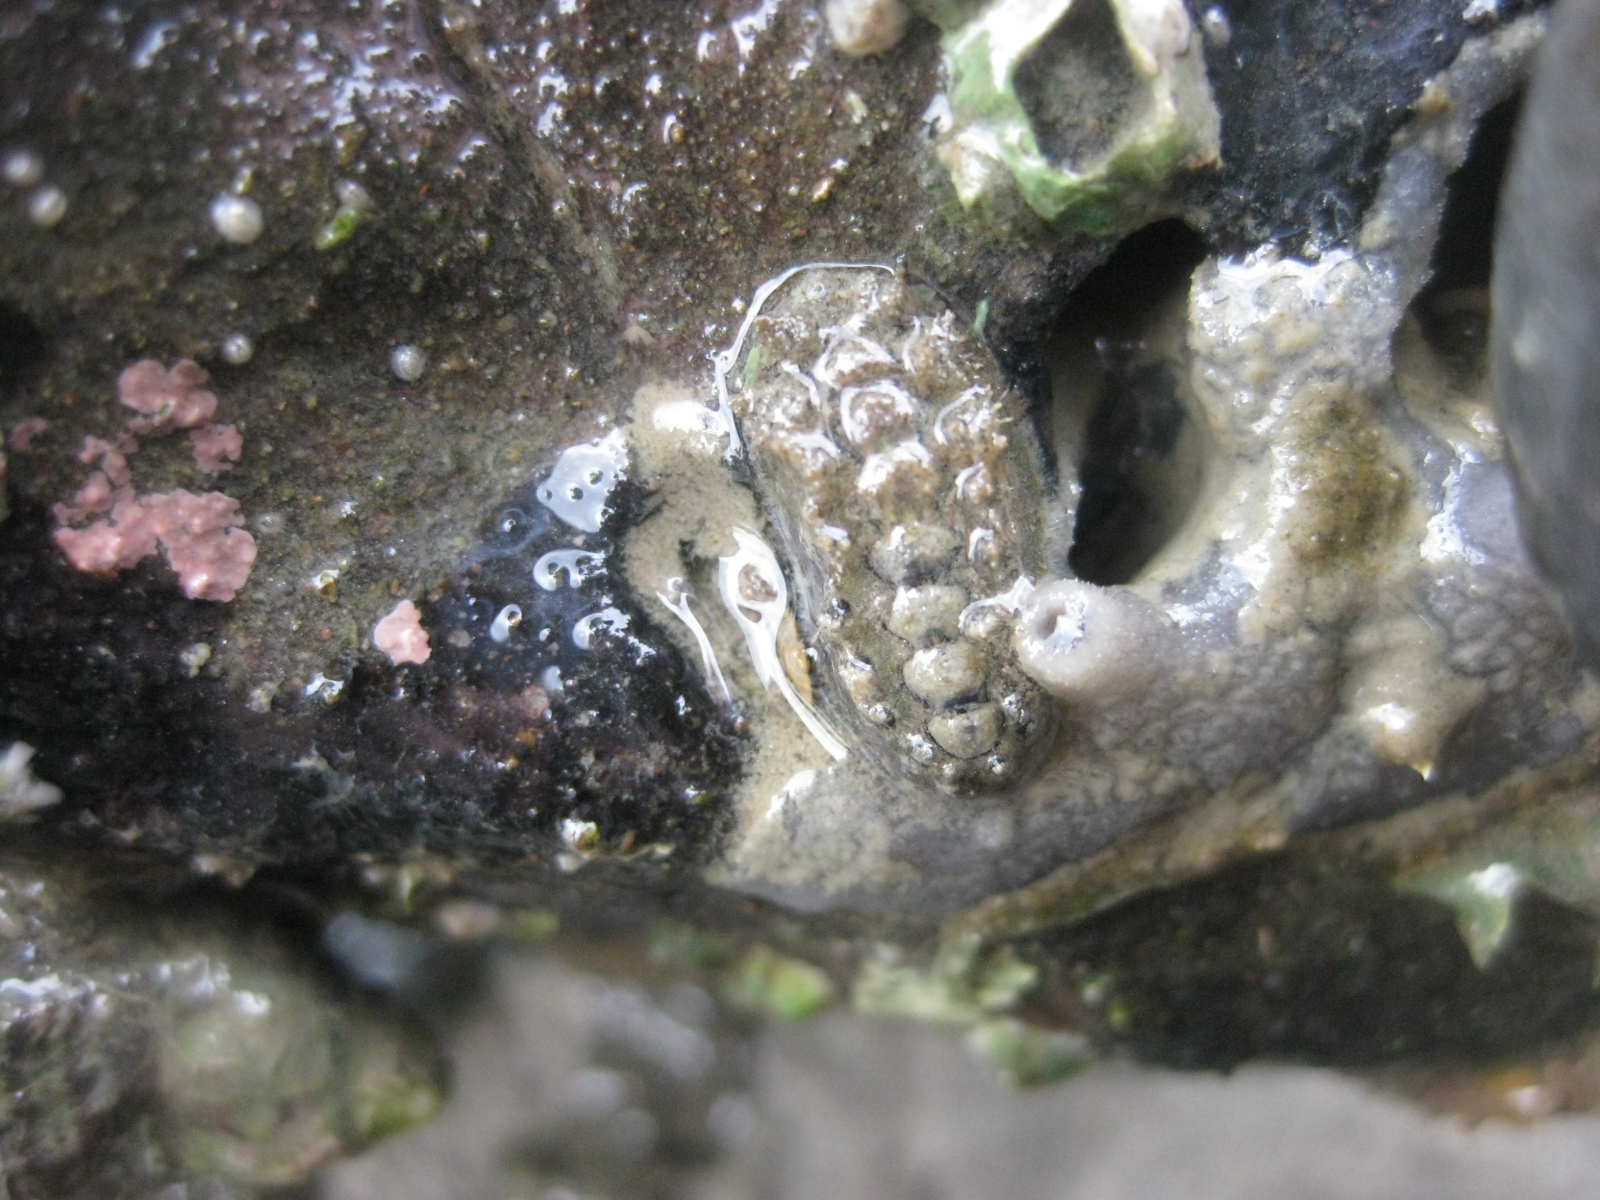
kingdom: Animalia
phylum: Mollusca
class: Polyplacophora
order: Chitonida
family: Acanthochitonidae
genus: Acanthochitona
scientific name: Acanthochitona zelandica
